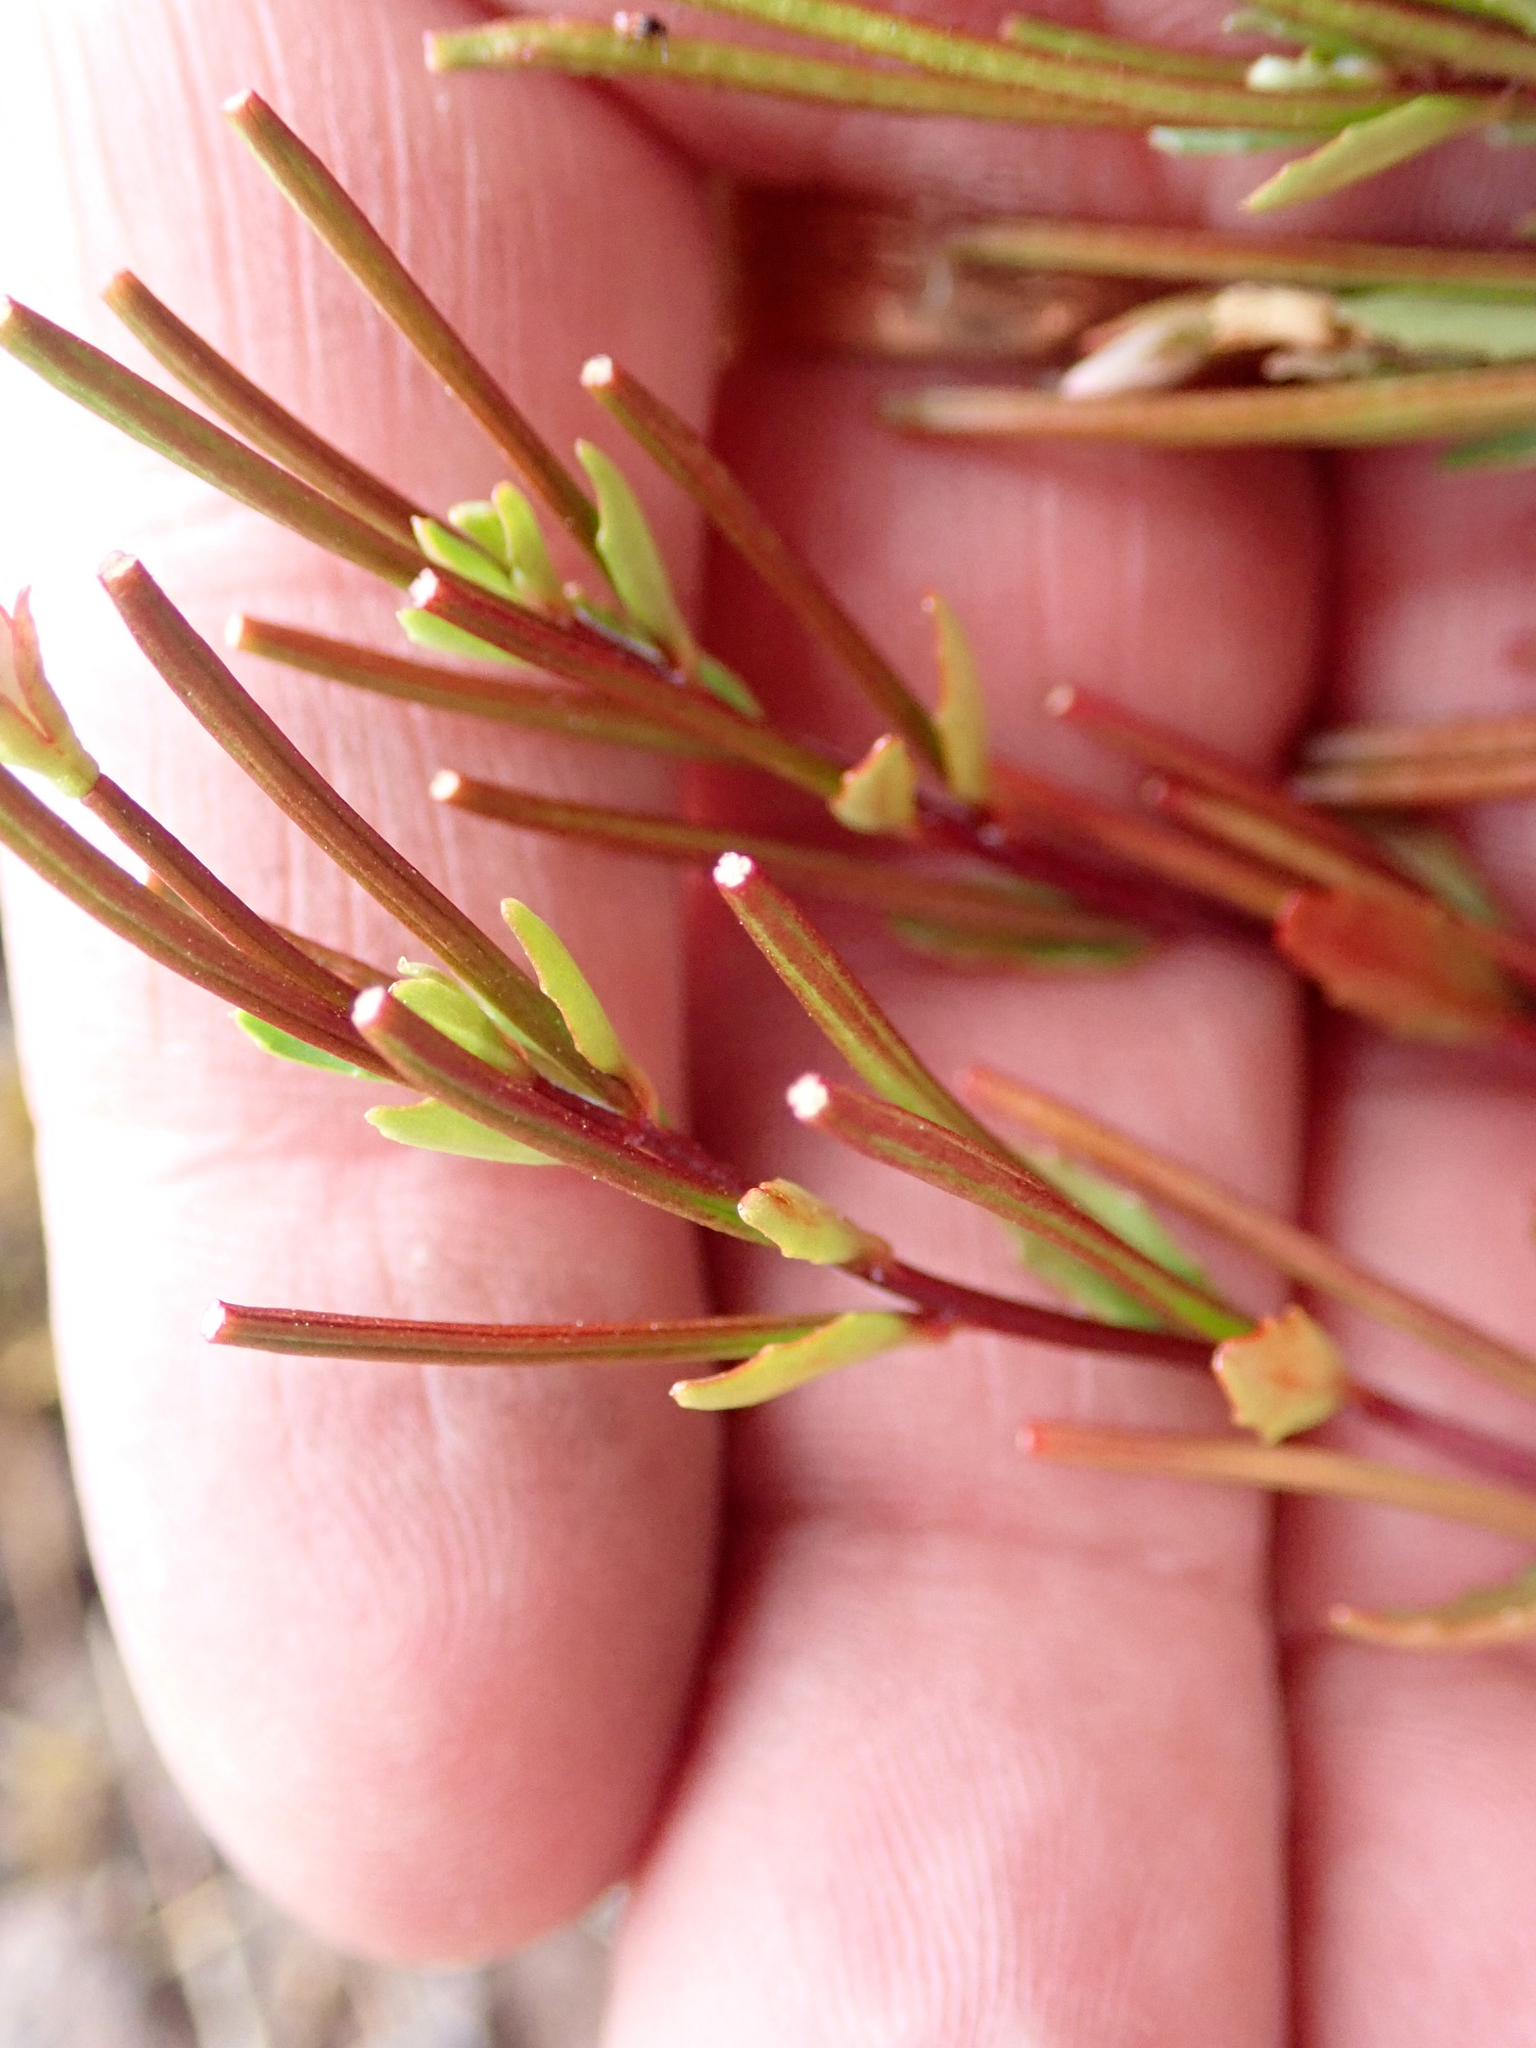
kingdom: Plantae
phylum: Tracheophyta
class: Magnoliopsida
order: Myrtales
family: Onagraceae
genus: Epilobium
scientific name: Epilobium glabellum
